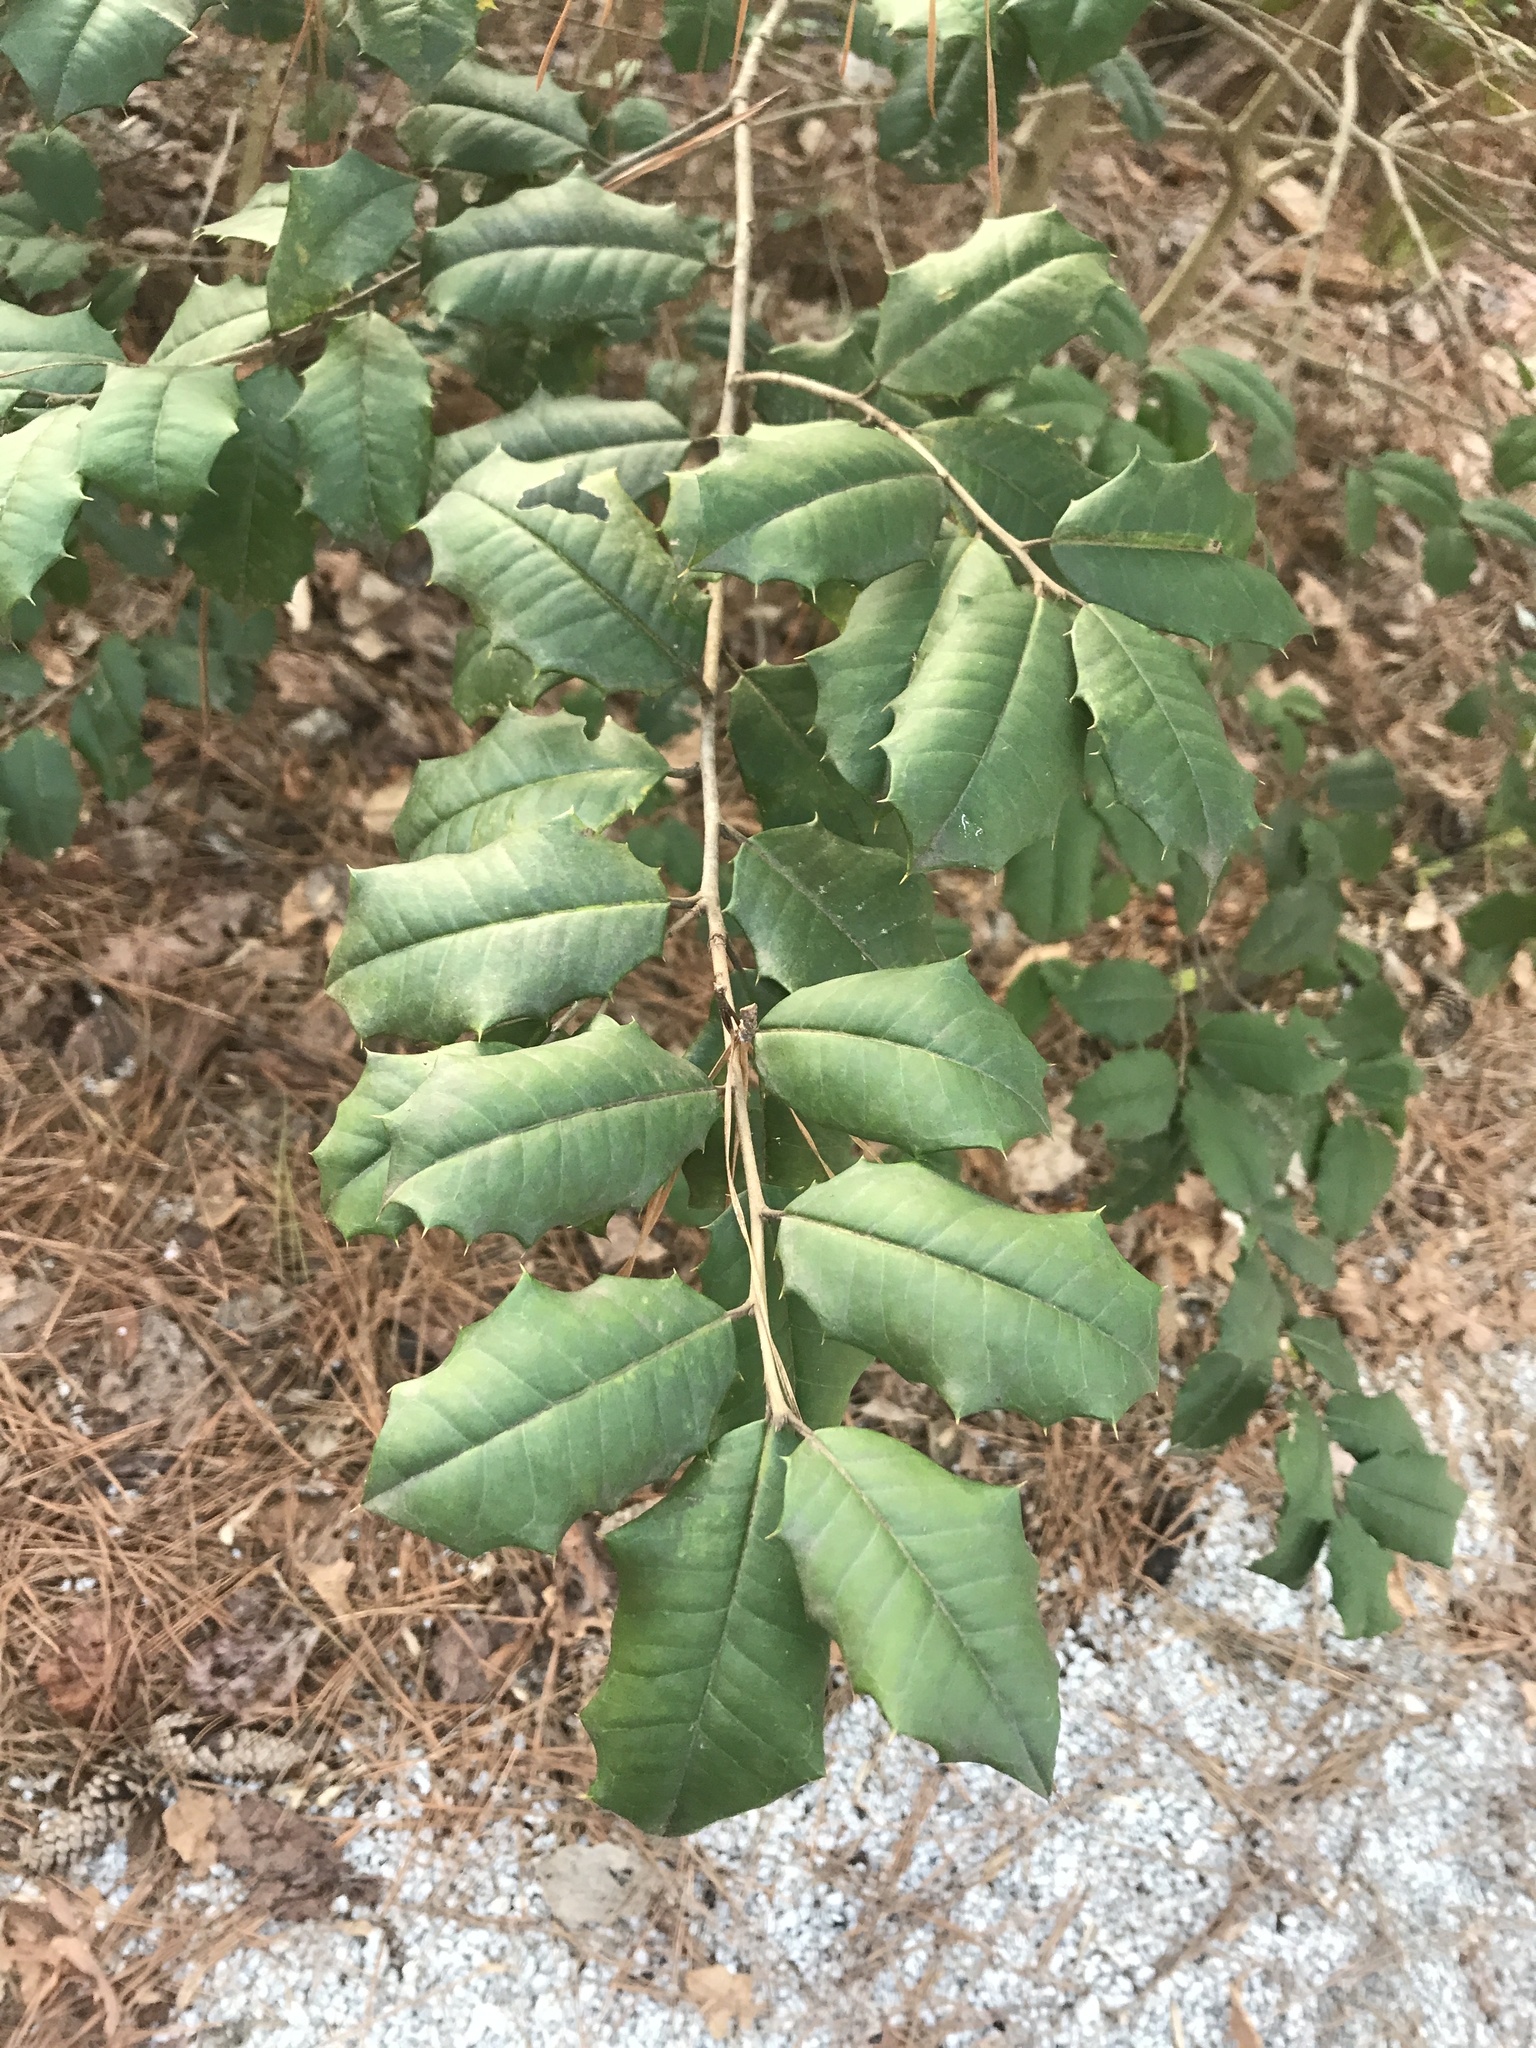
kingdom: Plantae
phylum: Tracheophyta
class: Magnoliopsida
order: Aquifoliales
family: Aquifoliaceae
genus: Ilex
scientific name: Ilex opaca
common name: American holly
